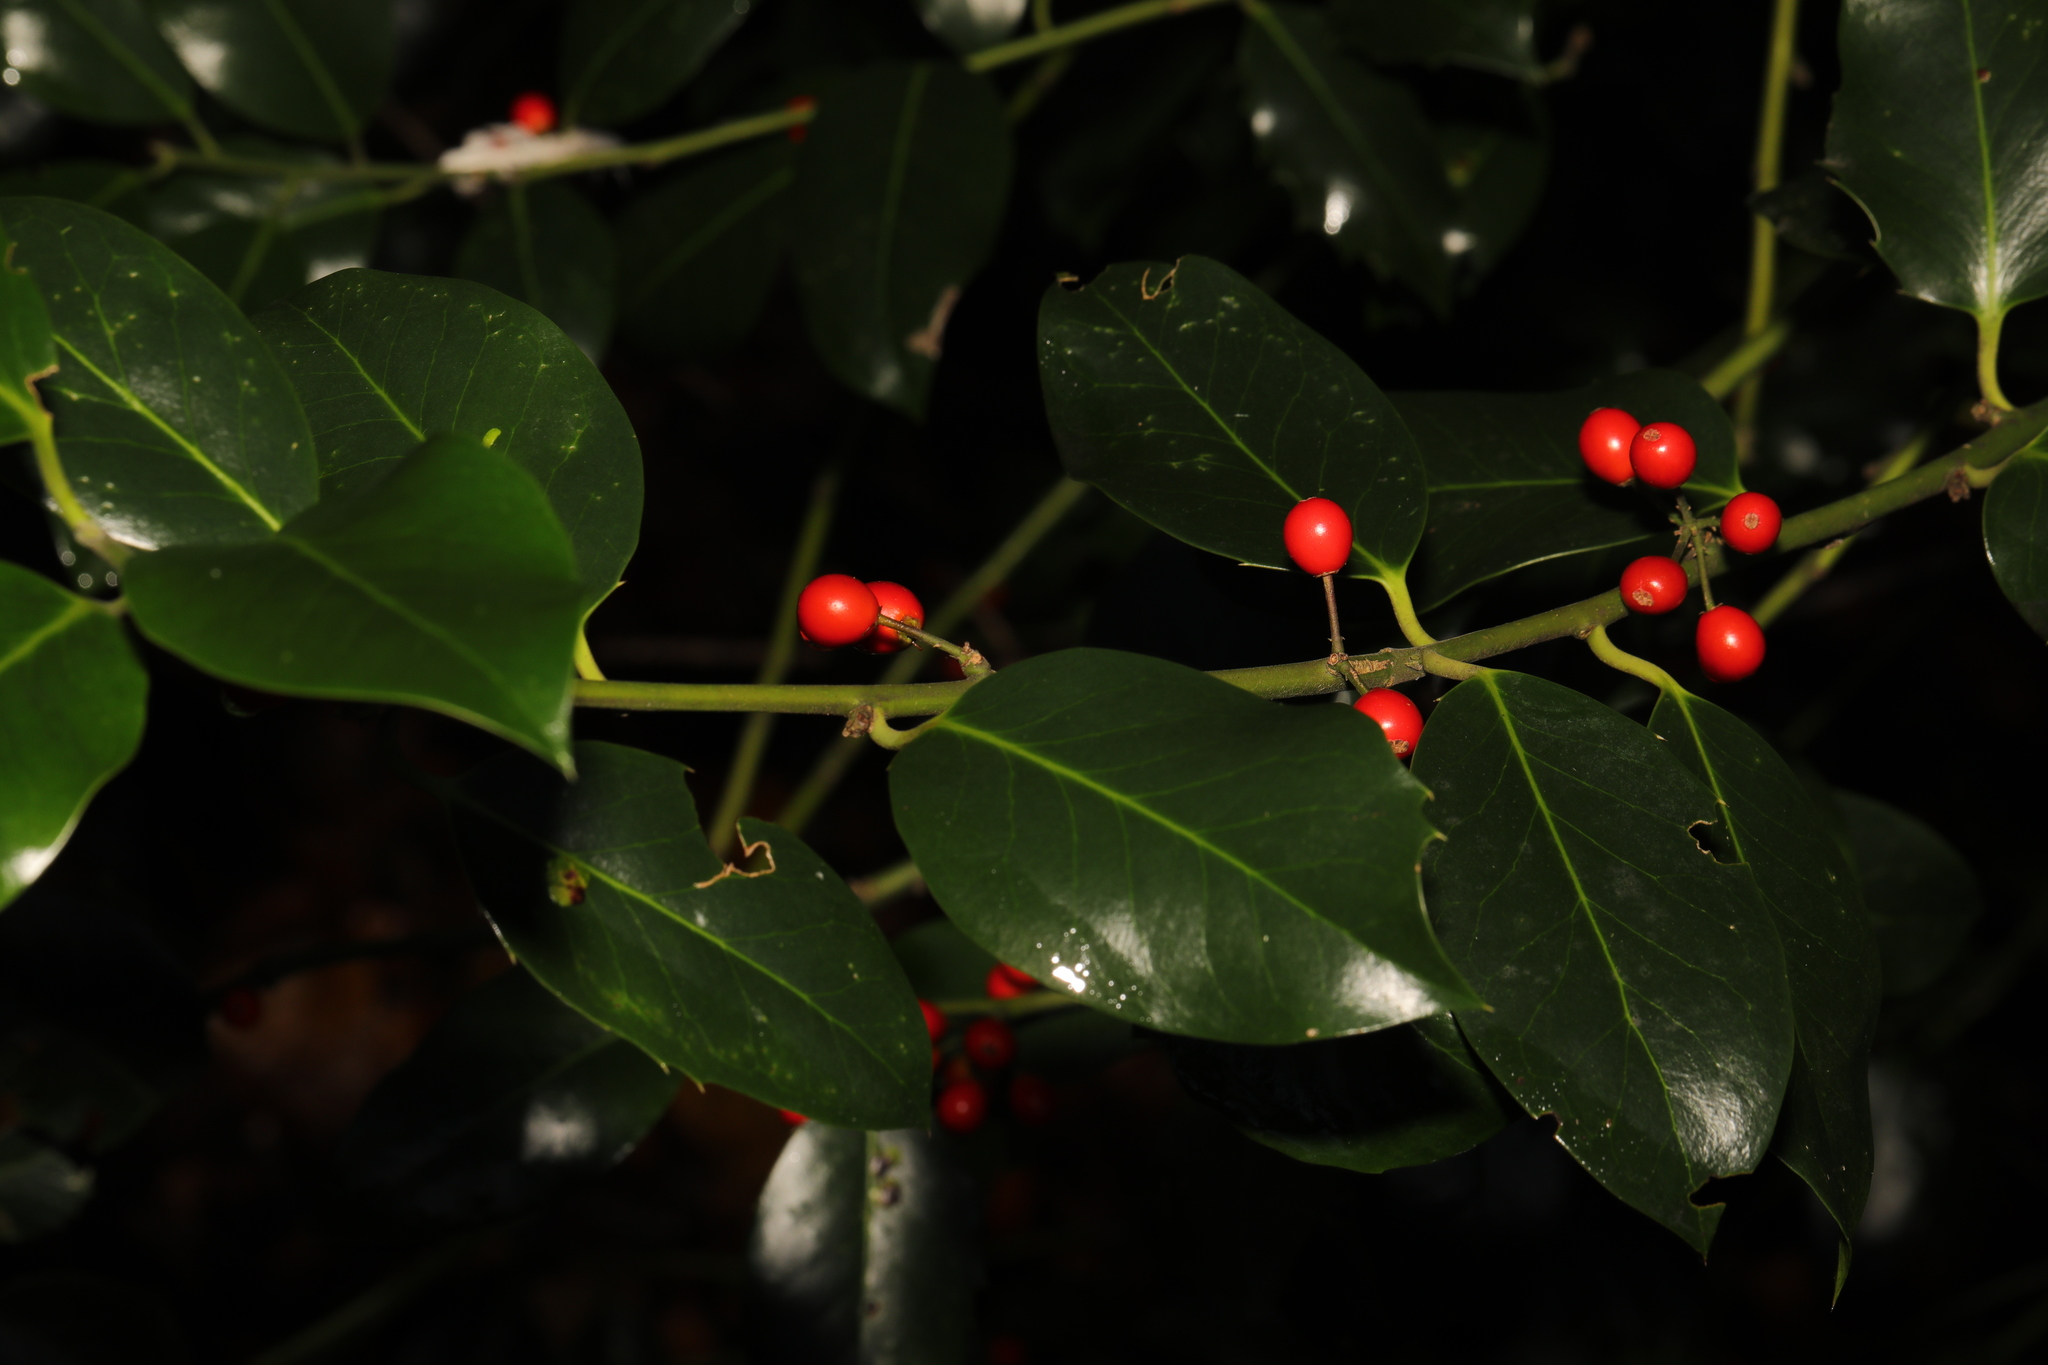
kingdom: Plantae
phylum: Tracheophyta
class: Magnoliopsida
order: Aquifoliales
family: Aquifoliaceae
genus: Ilex
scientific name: Ilex aquifolium
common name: English holly
